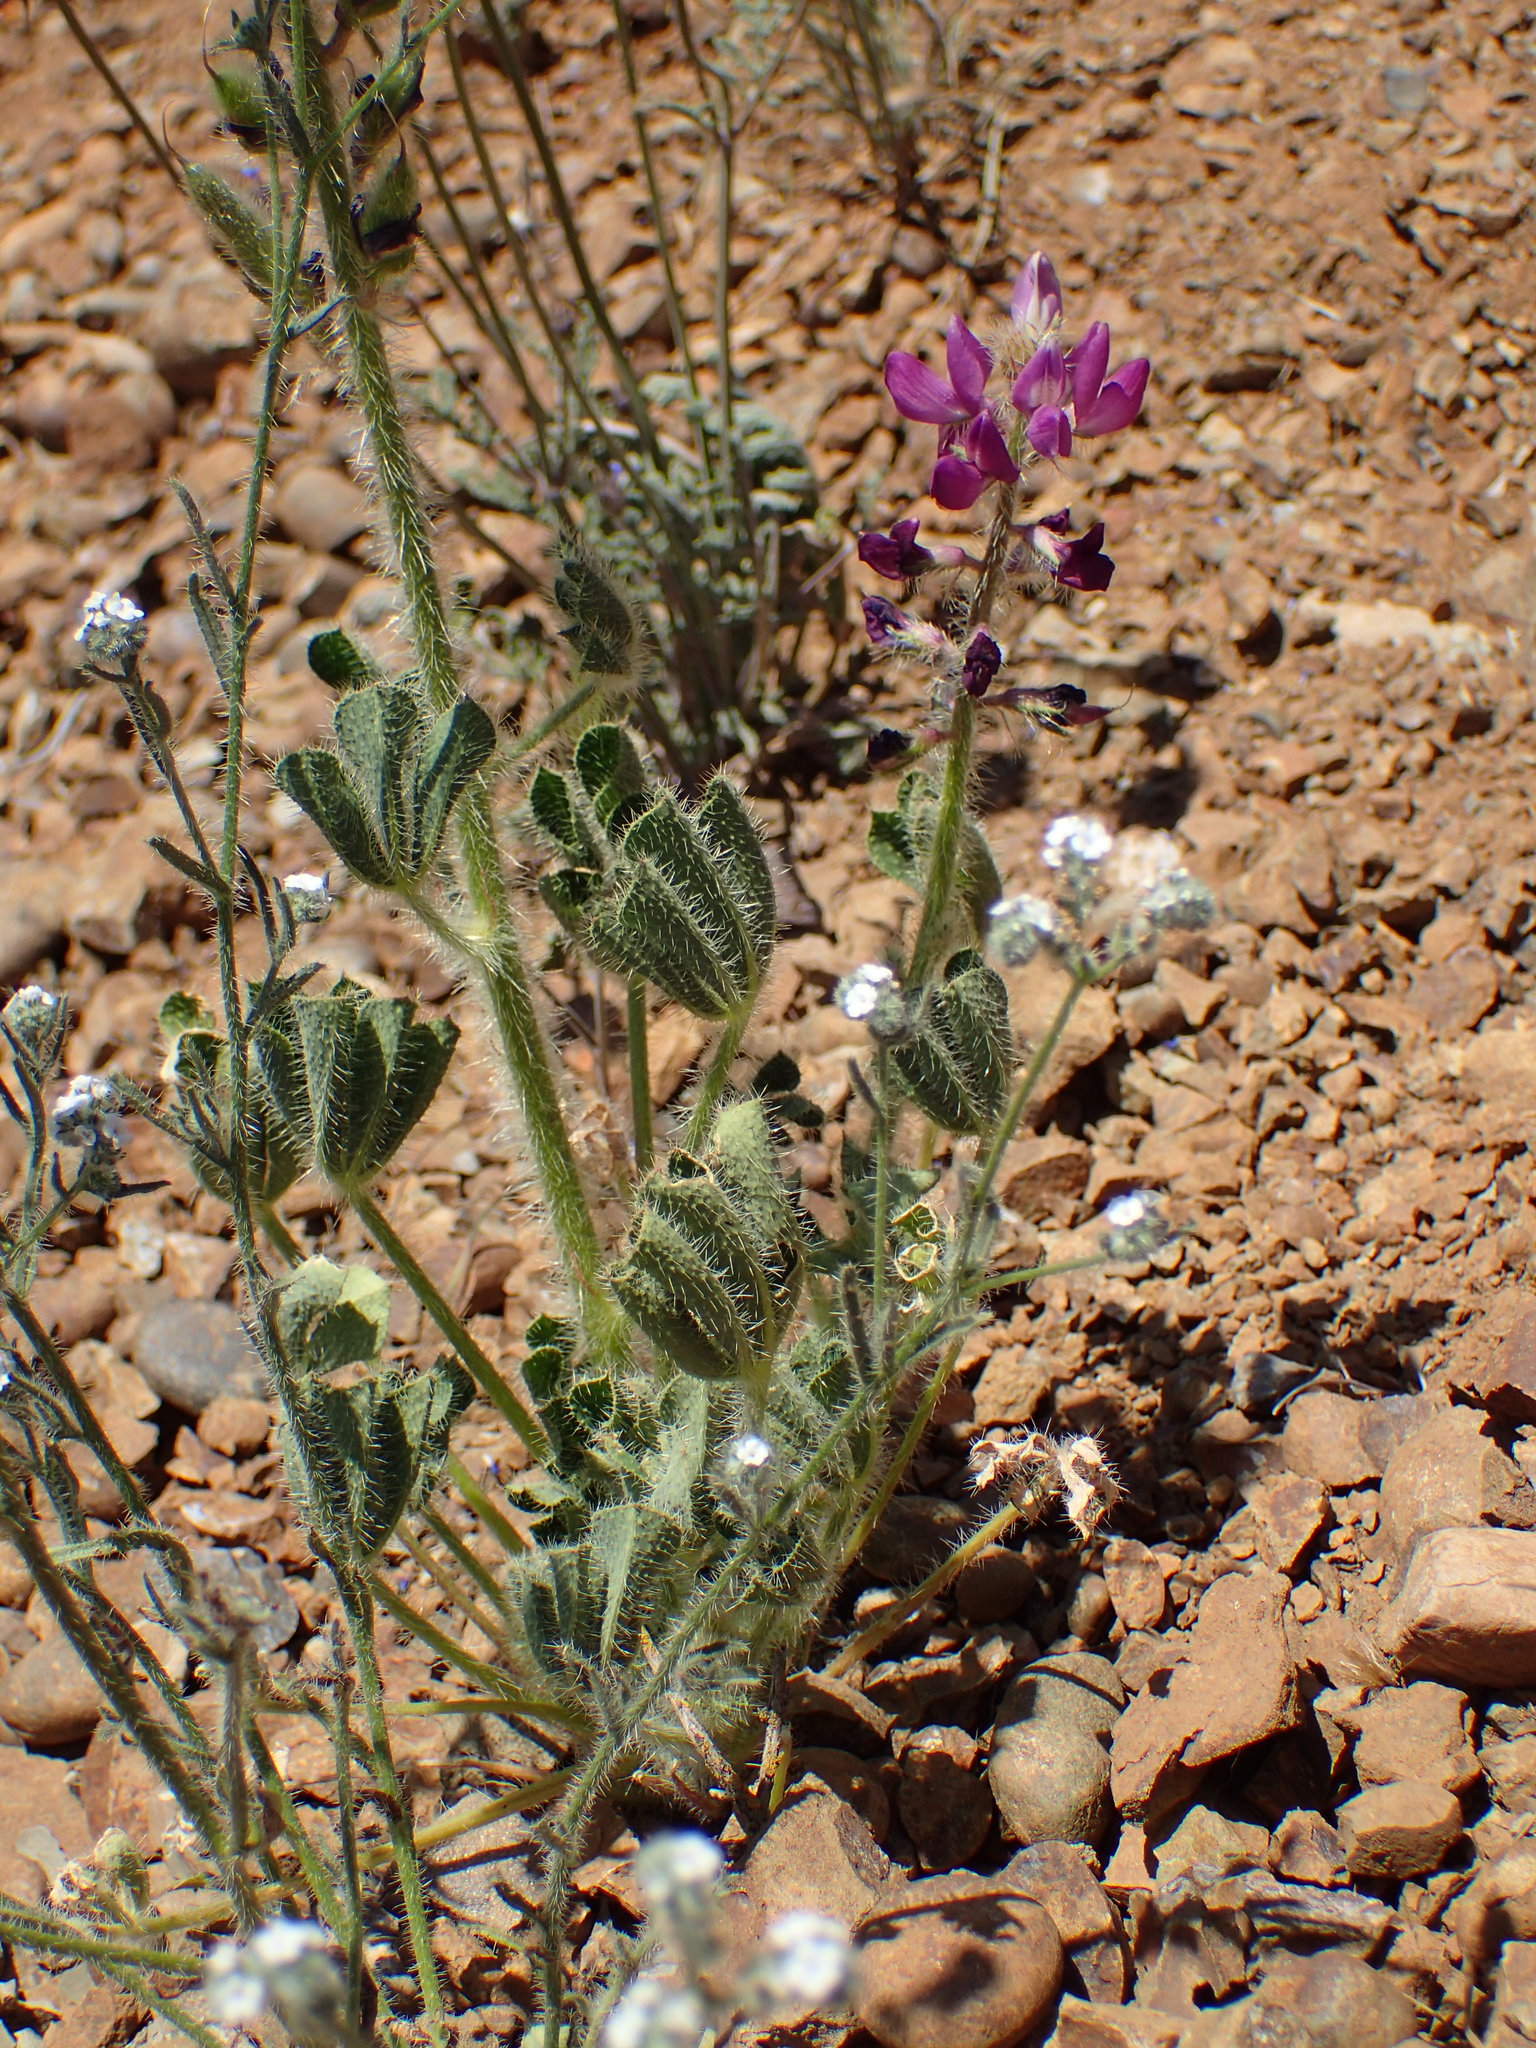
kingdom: Plantae
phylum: Tracheophyta
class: Magnoliopsida
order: Fabales
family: Fabaceae
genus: Lupinus
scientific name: Lupinus hirsutissimus
